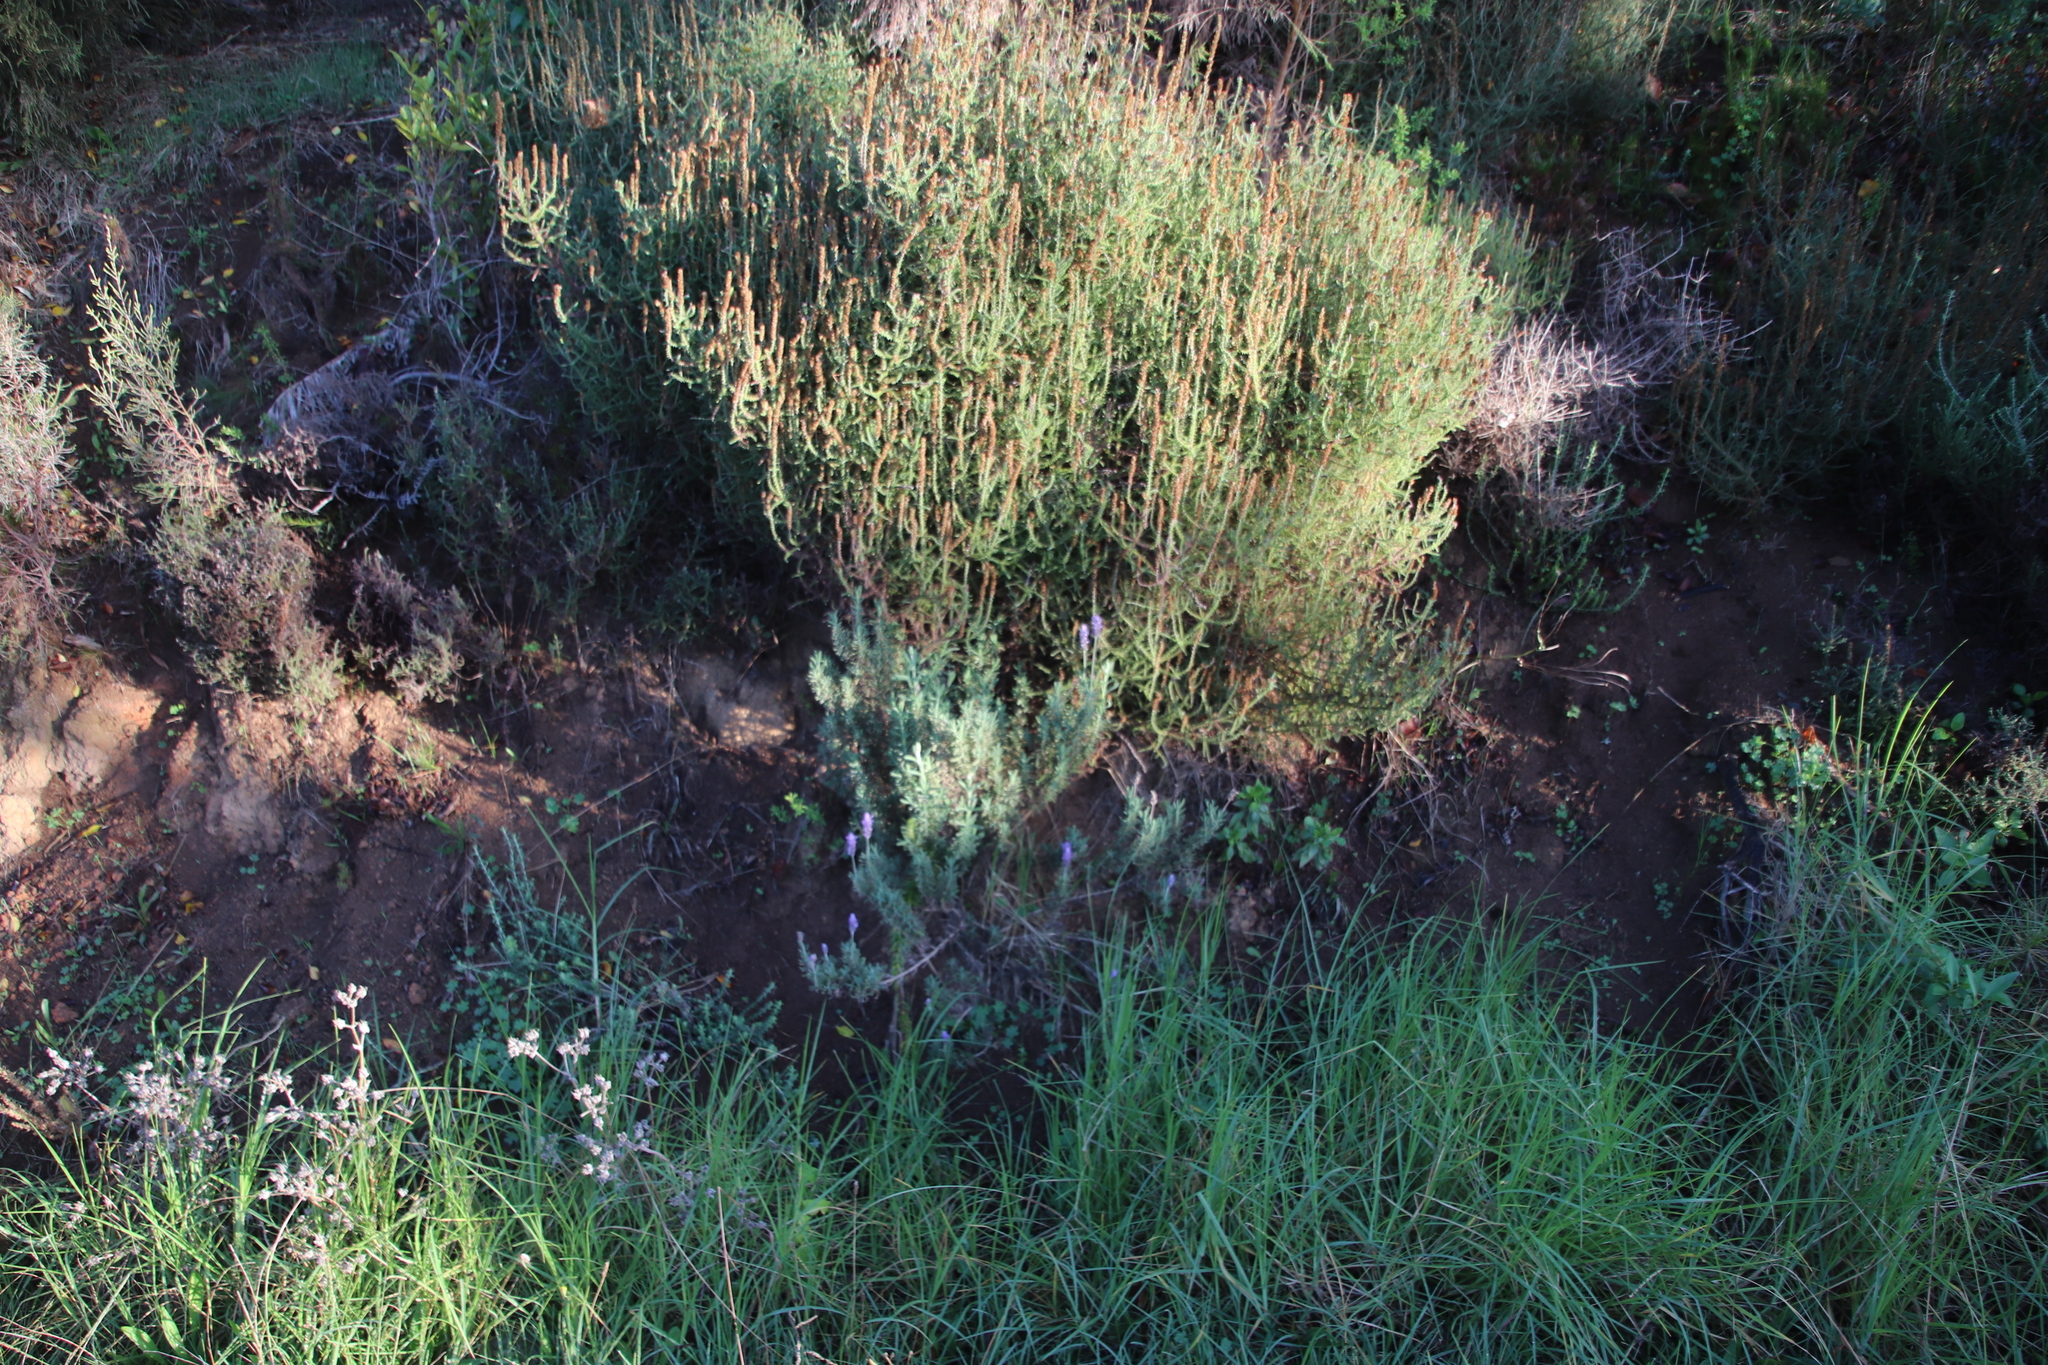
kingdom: Plantae
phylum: Tracheophyta
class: Magnoliopsida
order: Lamiales
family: Lamiaceae
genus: Lavandula
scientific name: Lavandula dentata
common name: French lavender
